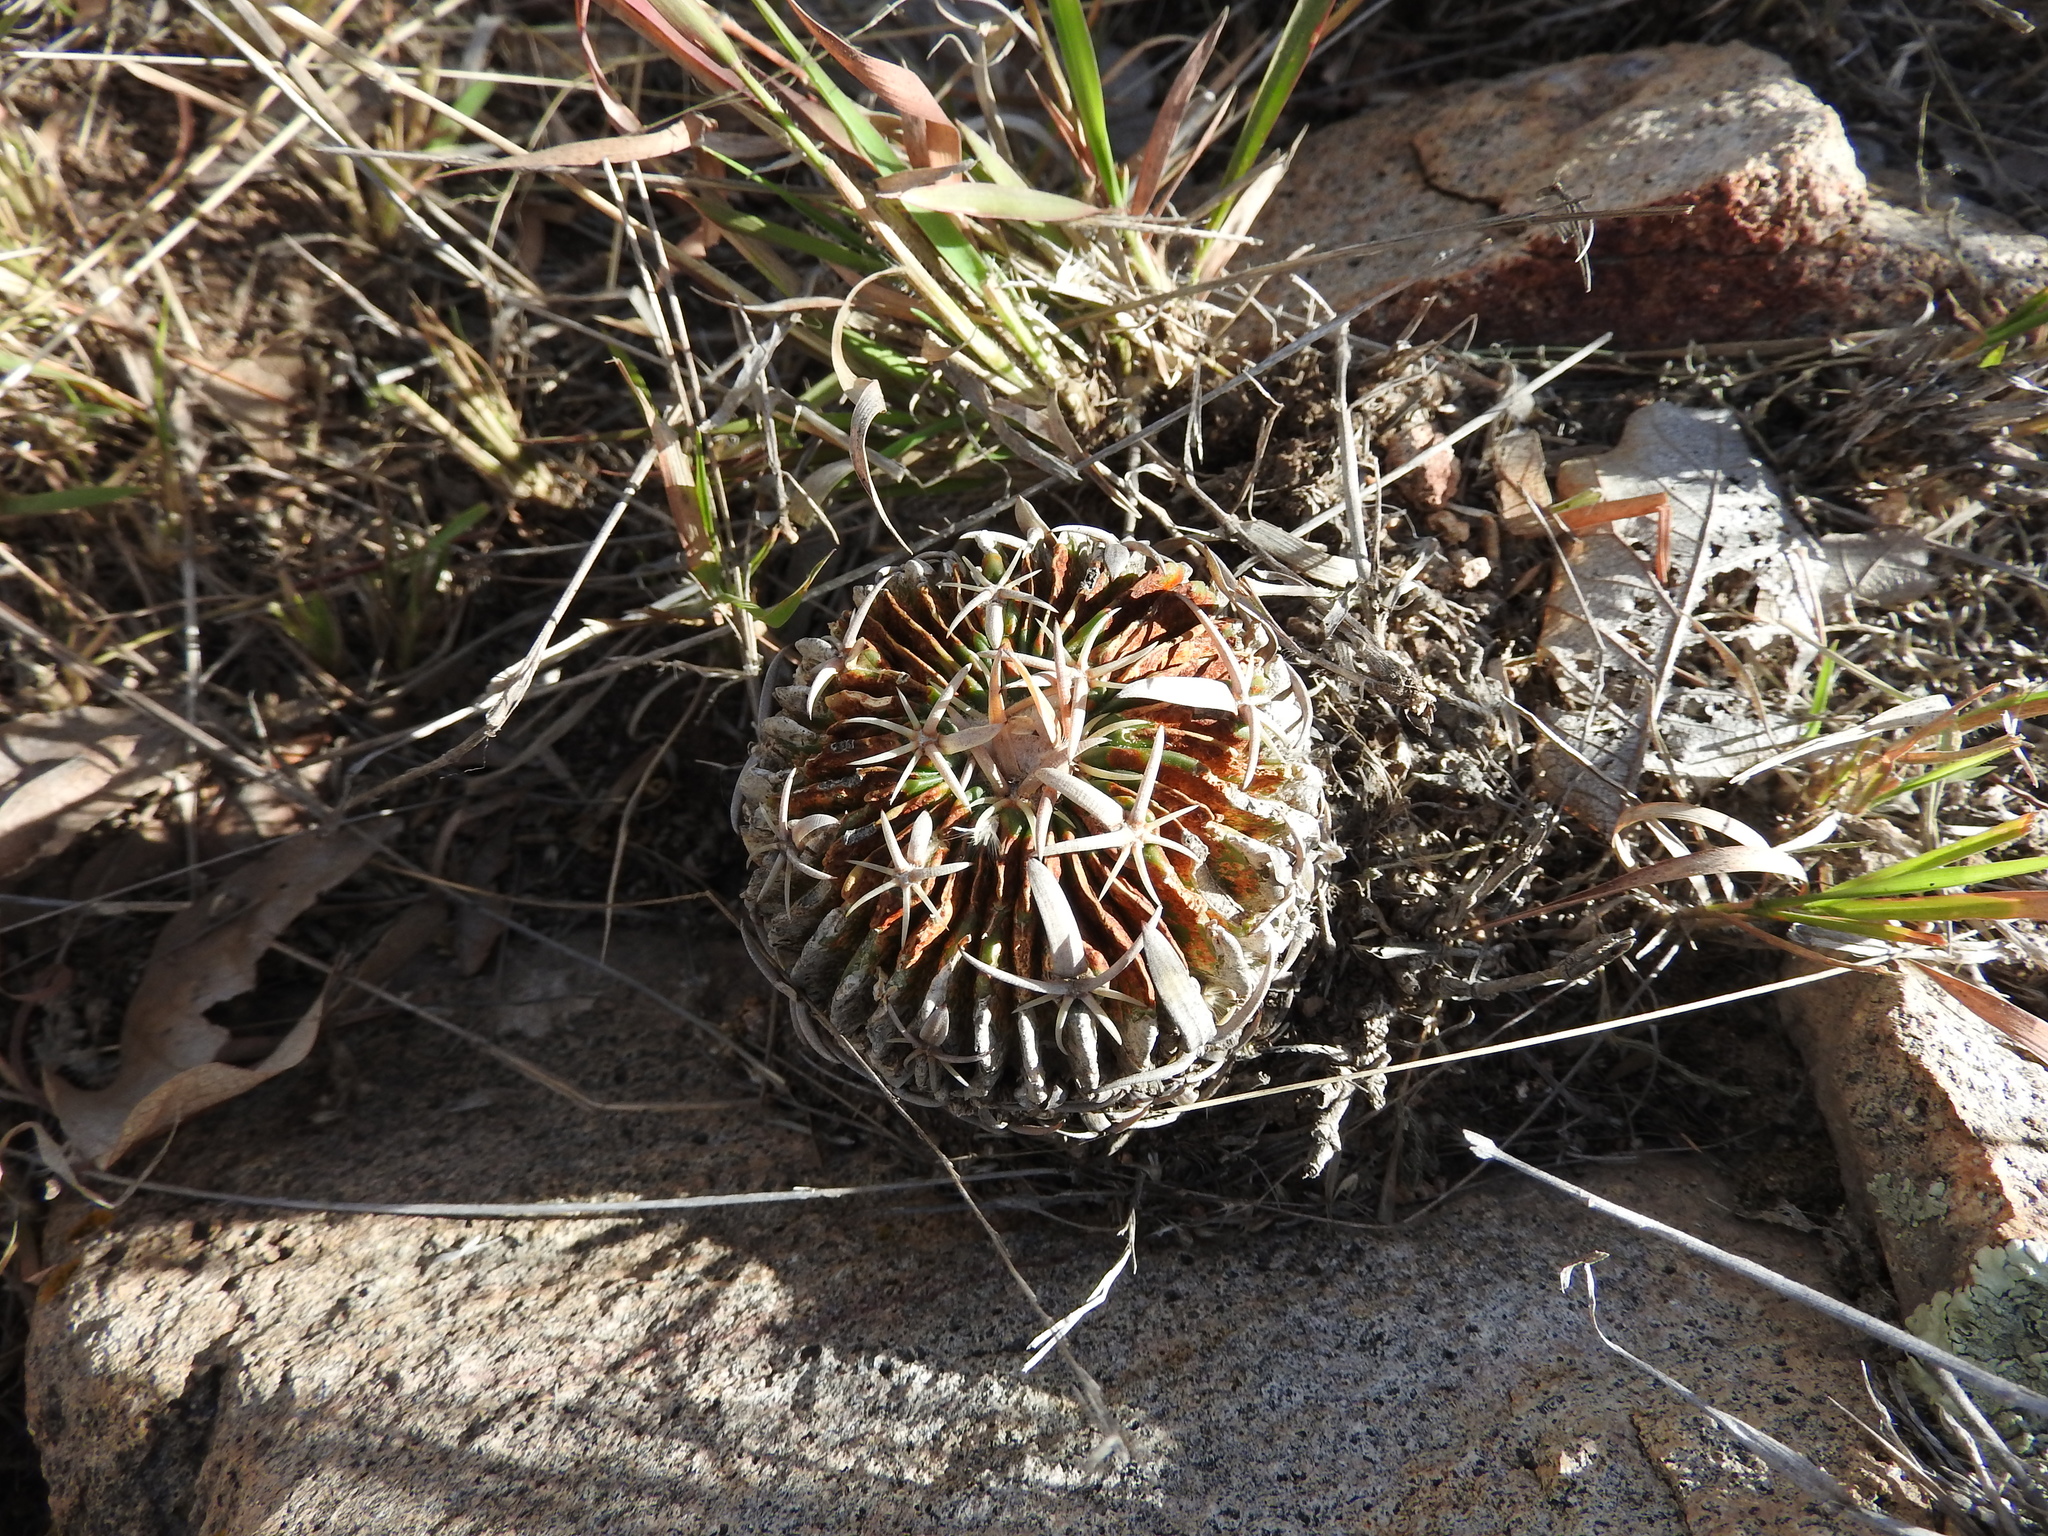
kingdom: Plantae
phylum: Tracheophyta
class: Magnoliopsida
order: Caryophyllales
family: Cactaceae
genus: Stenocactus
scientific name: Stenocactus obvallatus
